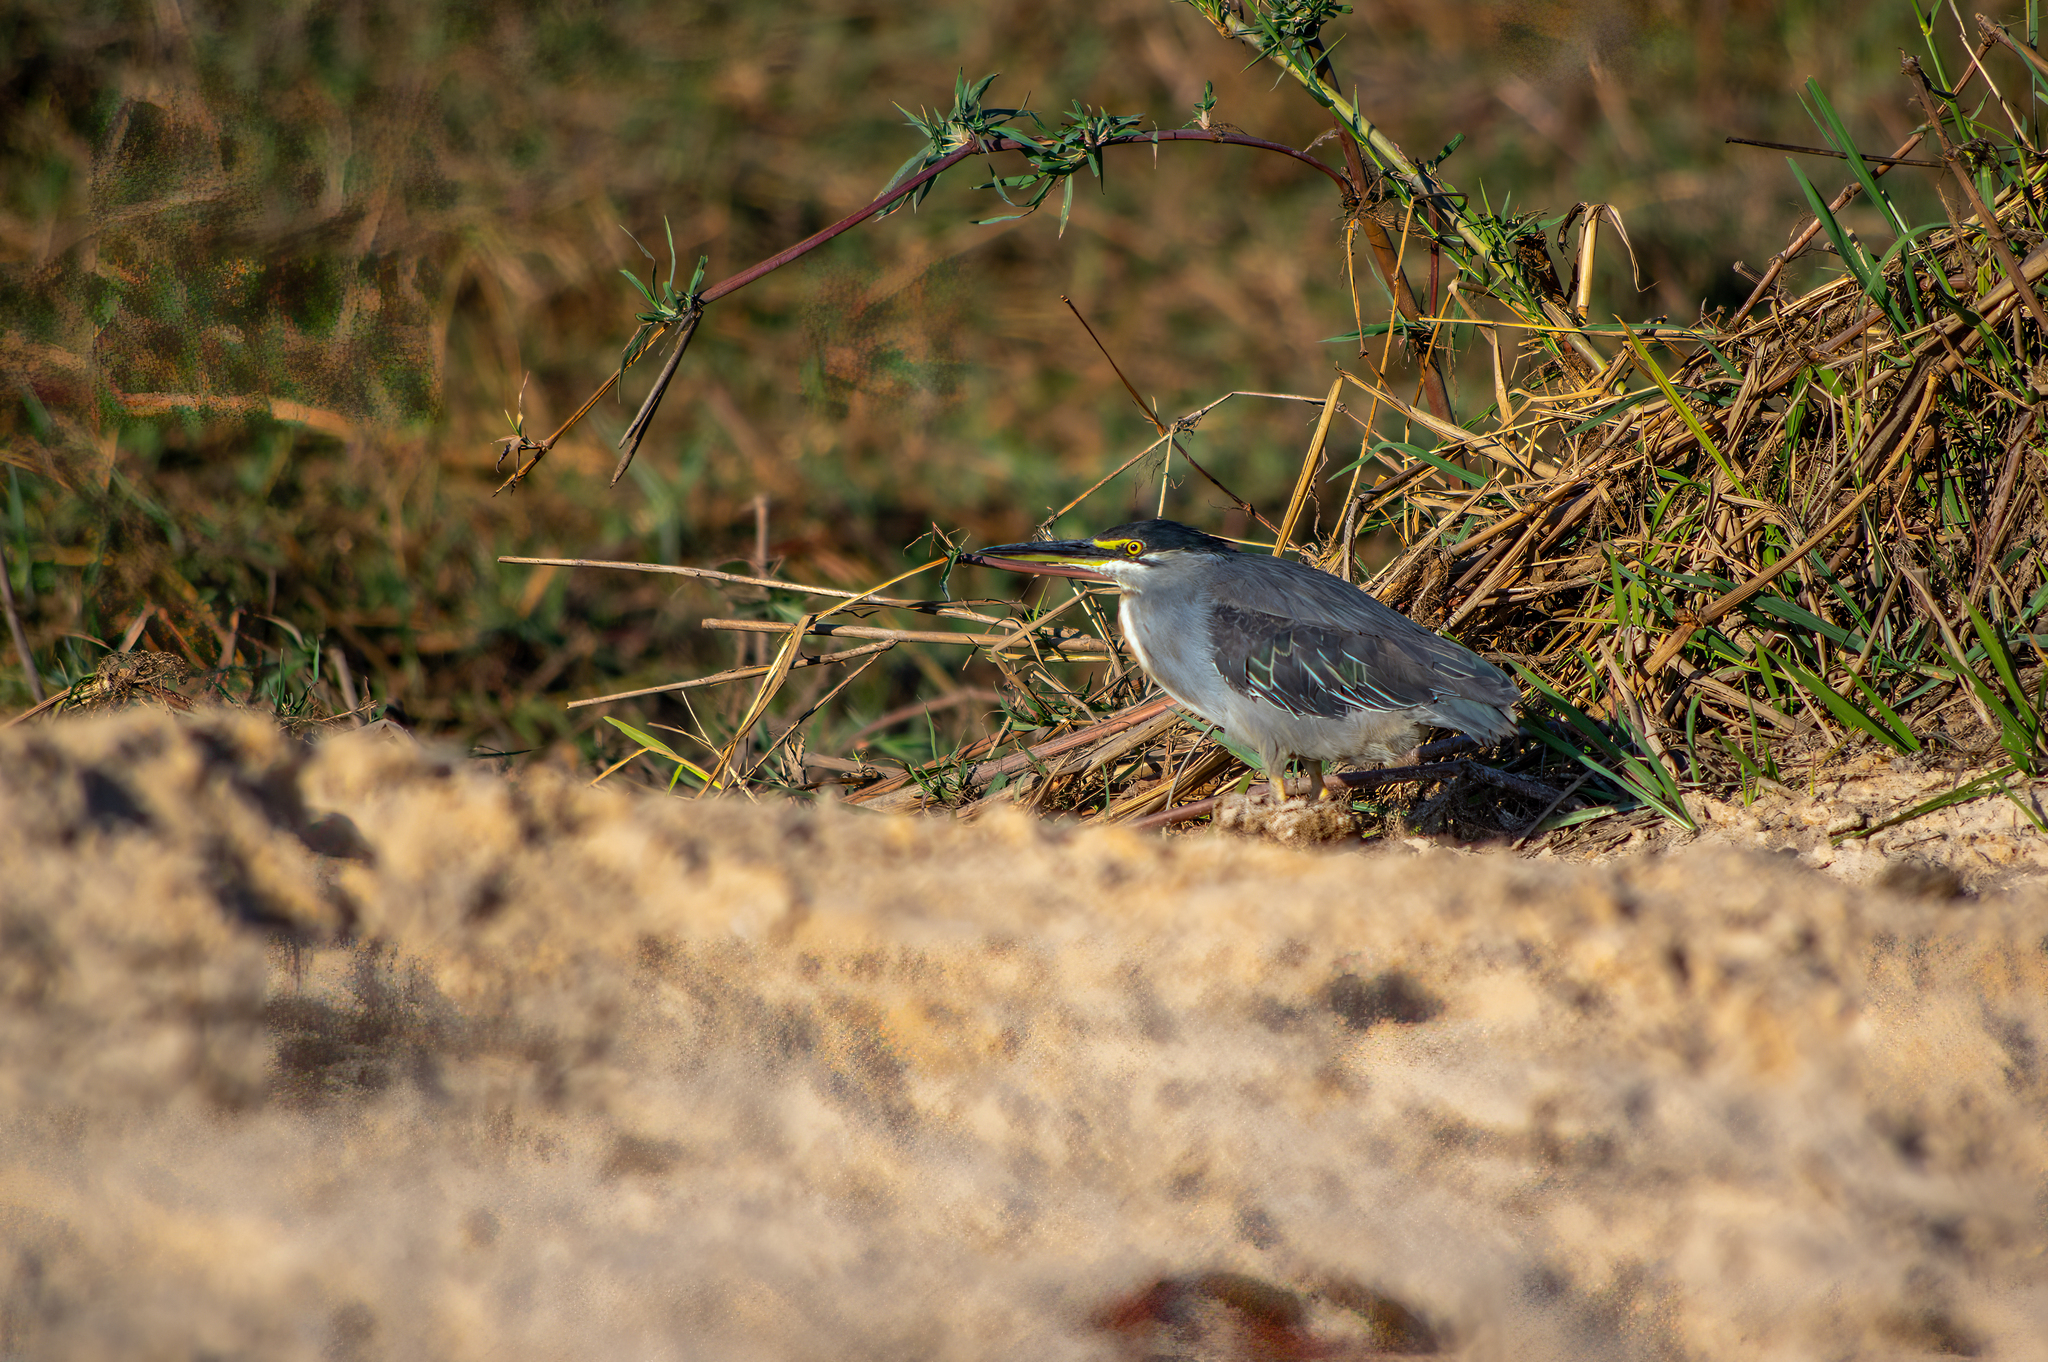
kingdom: Animalia
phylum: Chordata
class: Aves
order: Pelecaniformes
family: Ardeidae
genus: Butorides
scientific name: Butorides striata
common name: Striated heron
